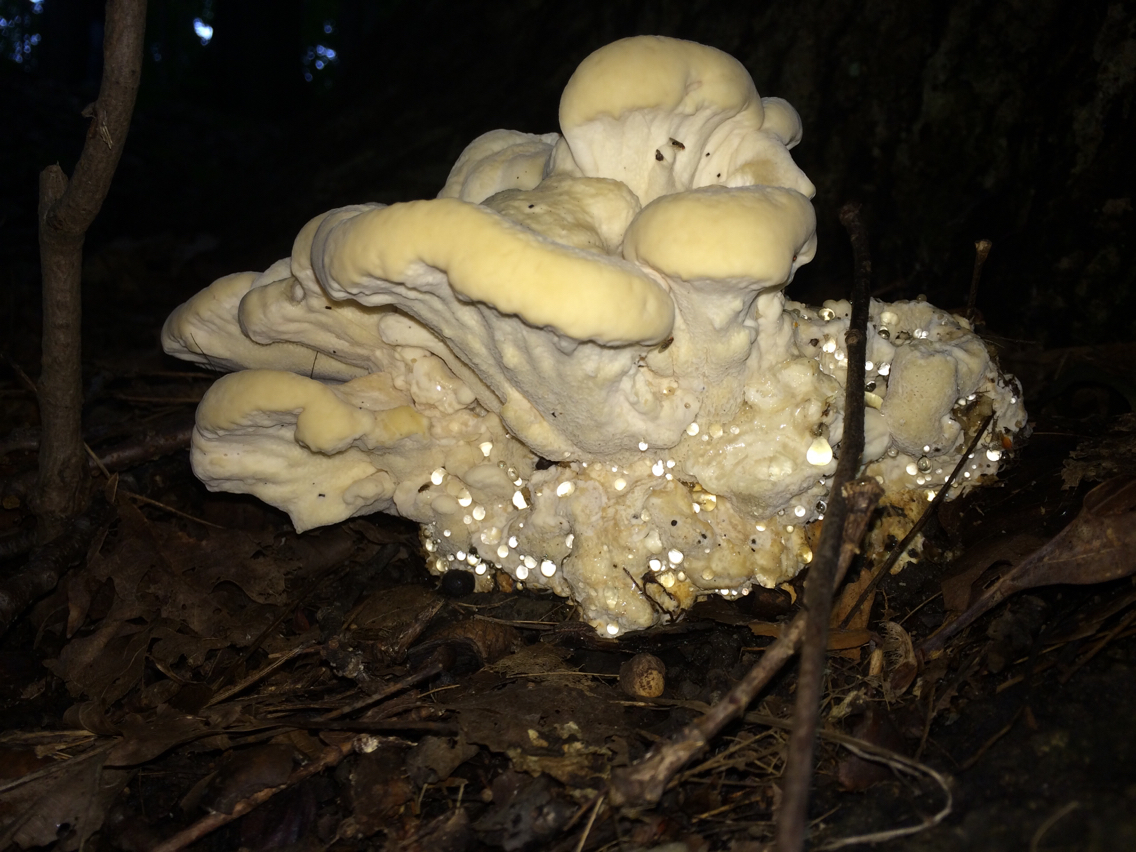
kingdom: Fungi
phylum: Basidiomycota
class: Agaricomycetes
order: Russulales
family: Bondarzewiaceae
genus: Bondarzewia
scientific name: Bondarzewia berkeleyi
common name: Berkeley's polypore
